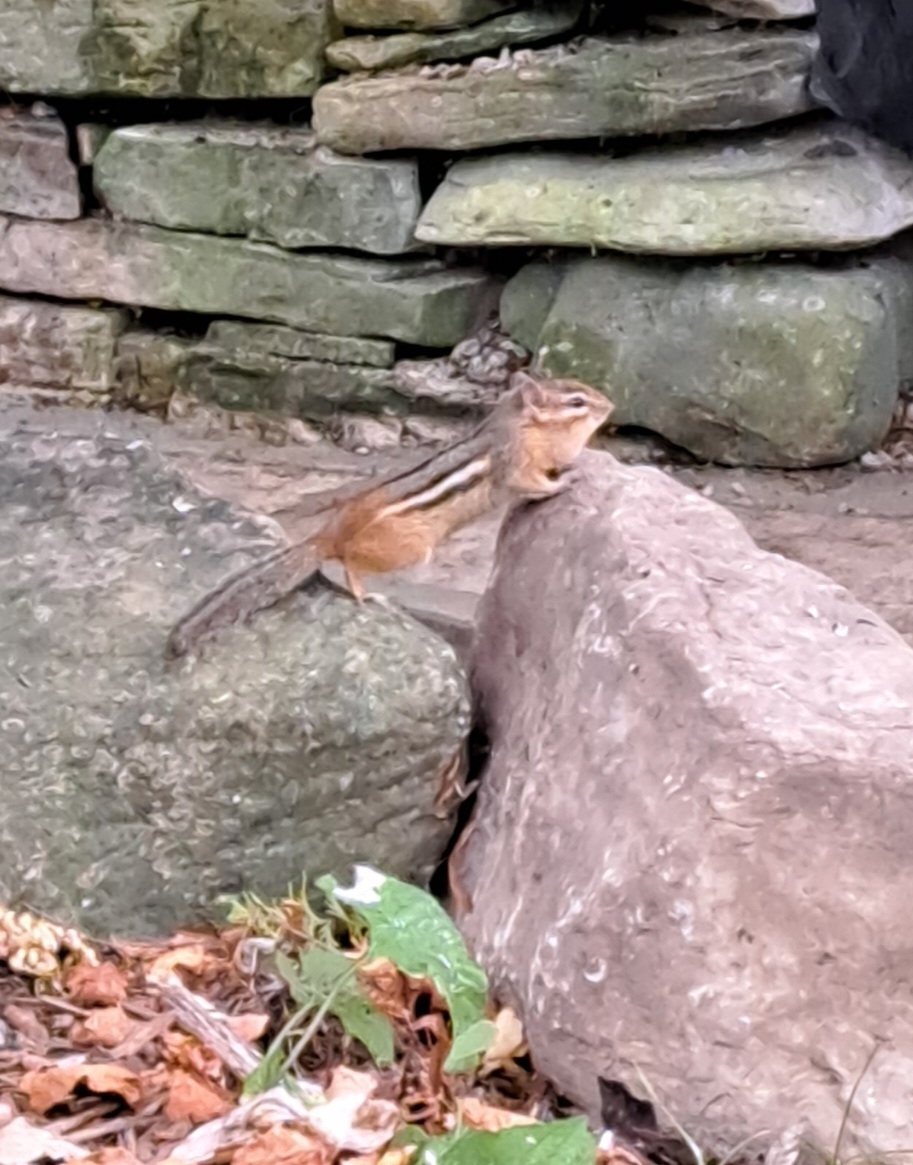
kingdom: Animalia
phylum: Chordata
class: Mammalia
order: Rodentia
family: Sciuridae
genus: Tamias
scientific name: Tamias striatus
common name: Eastern chipmunk
